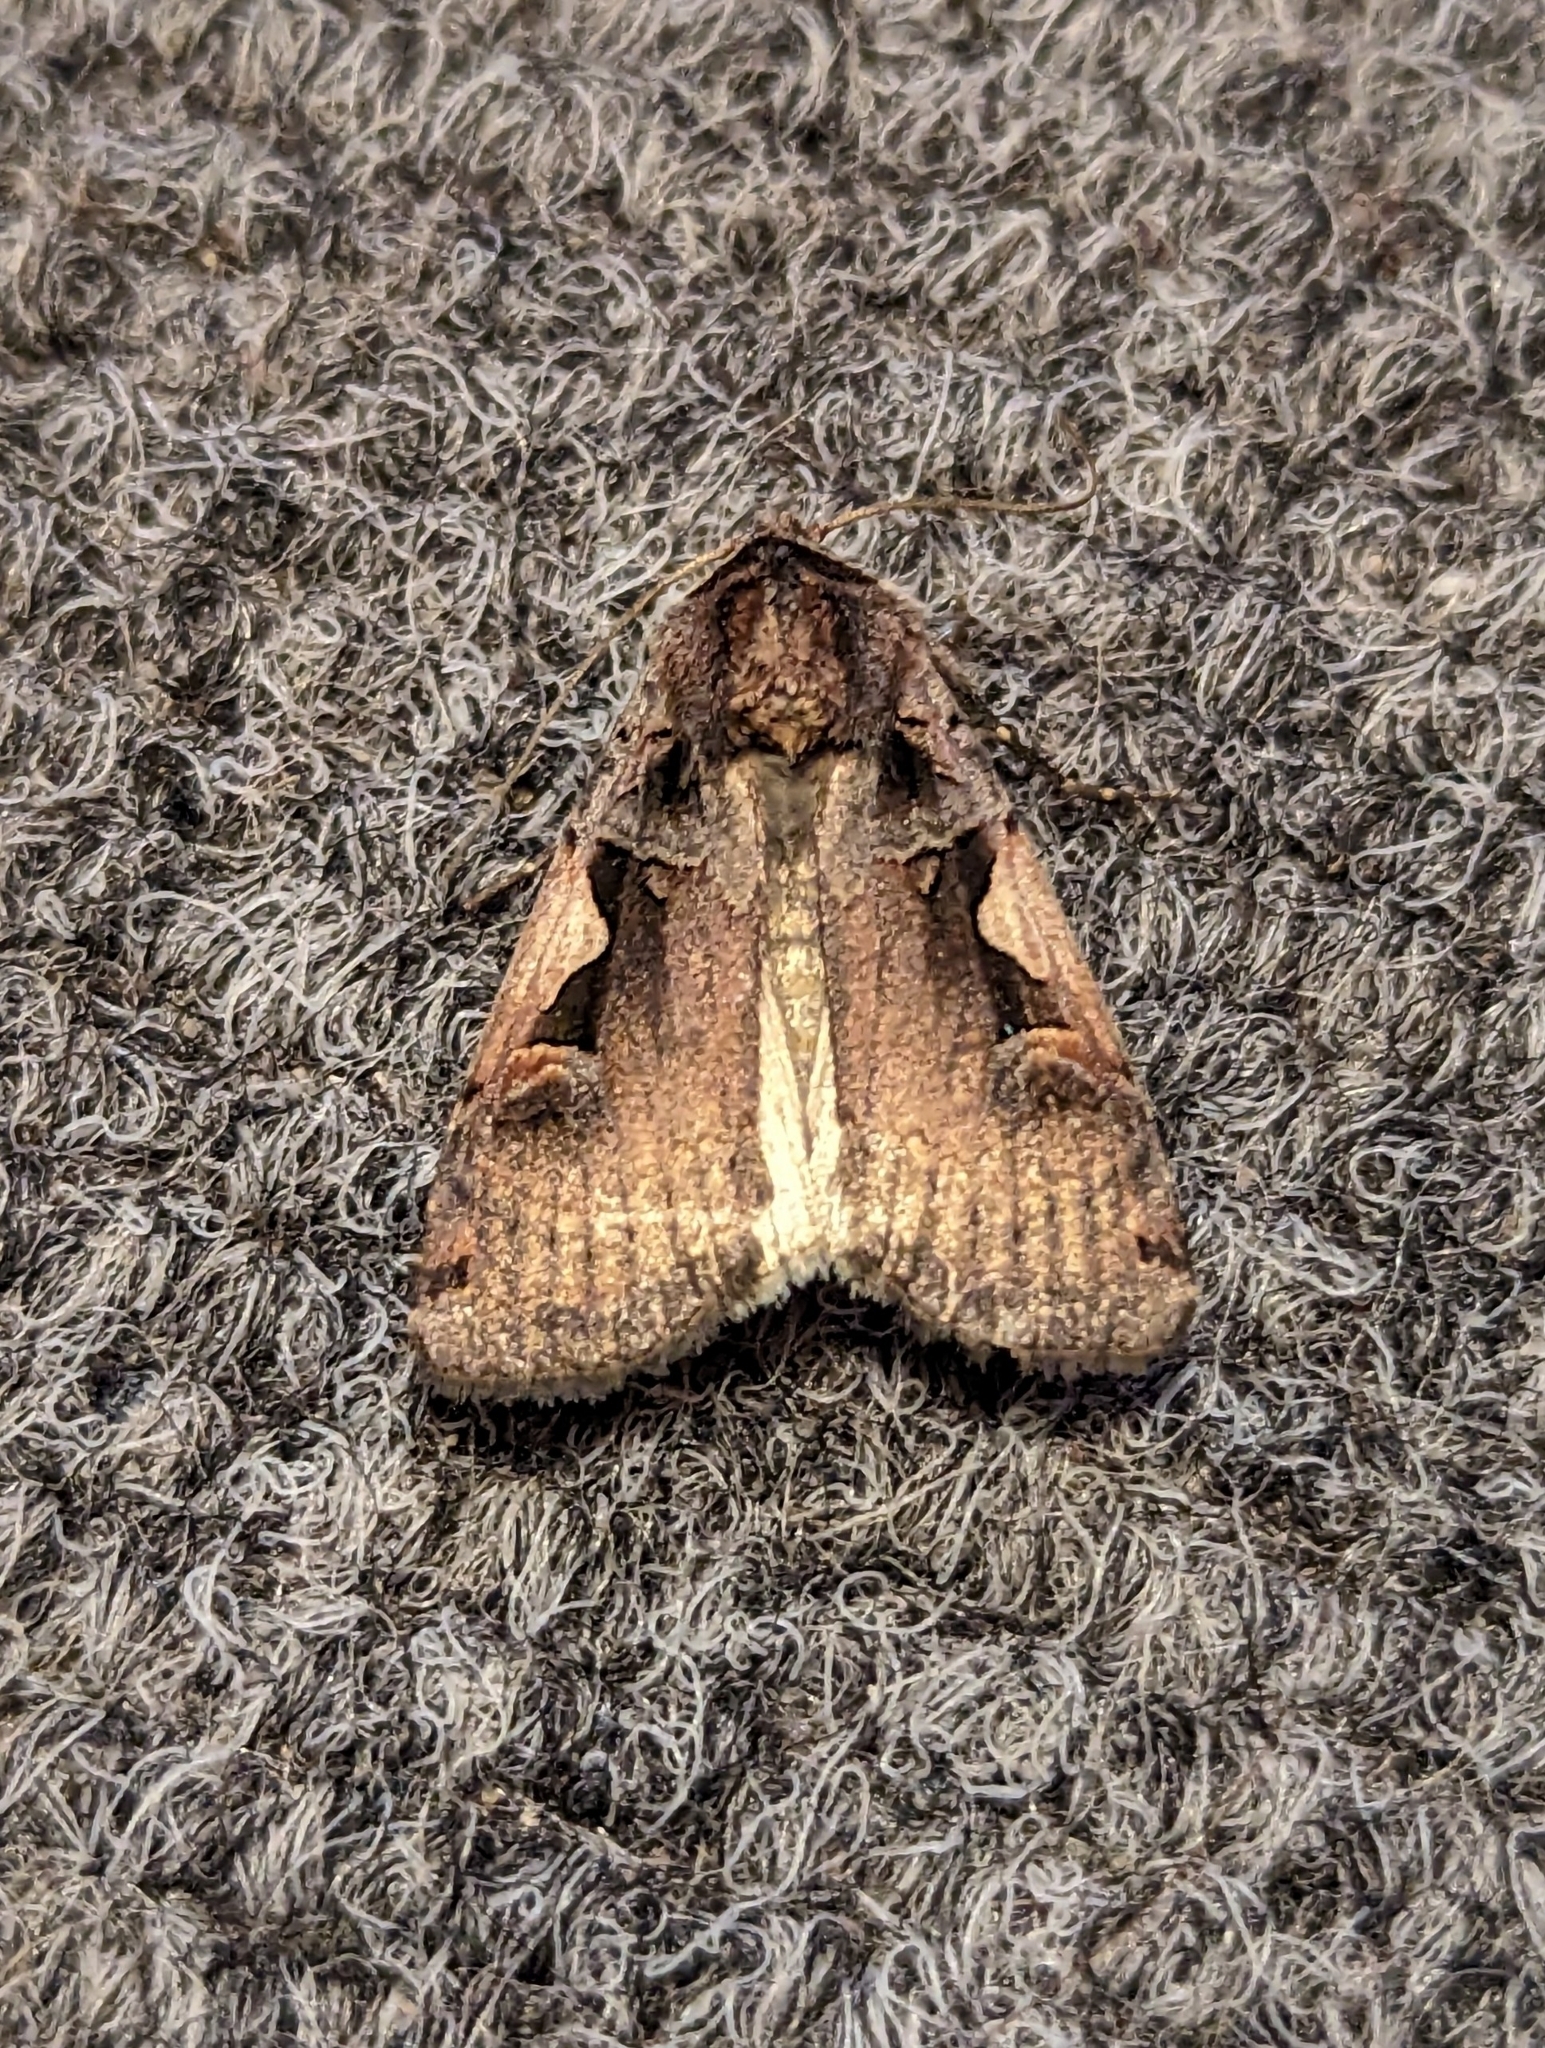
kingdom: Animalia
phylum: Arthropoda
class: Insecta
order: Lepidoptera
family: Noctuidae
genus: Xestia
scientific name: Xestia c-nigrum
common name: Setaceous hebrew character
